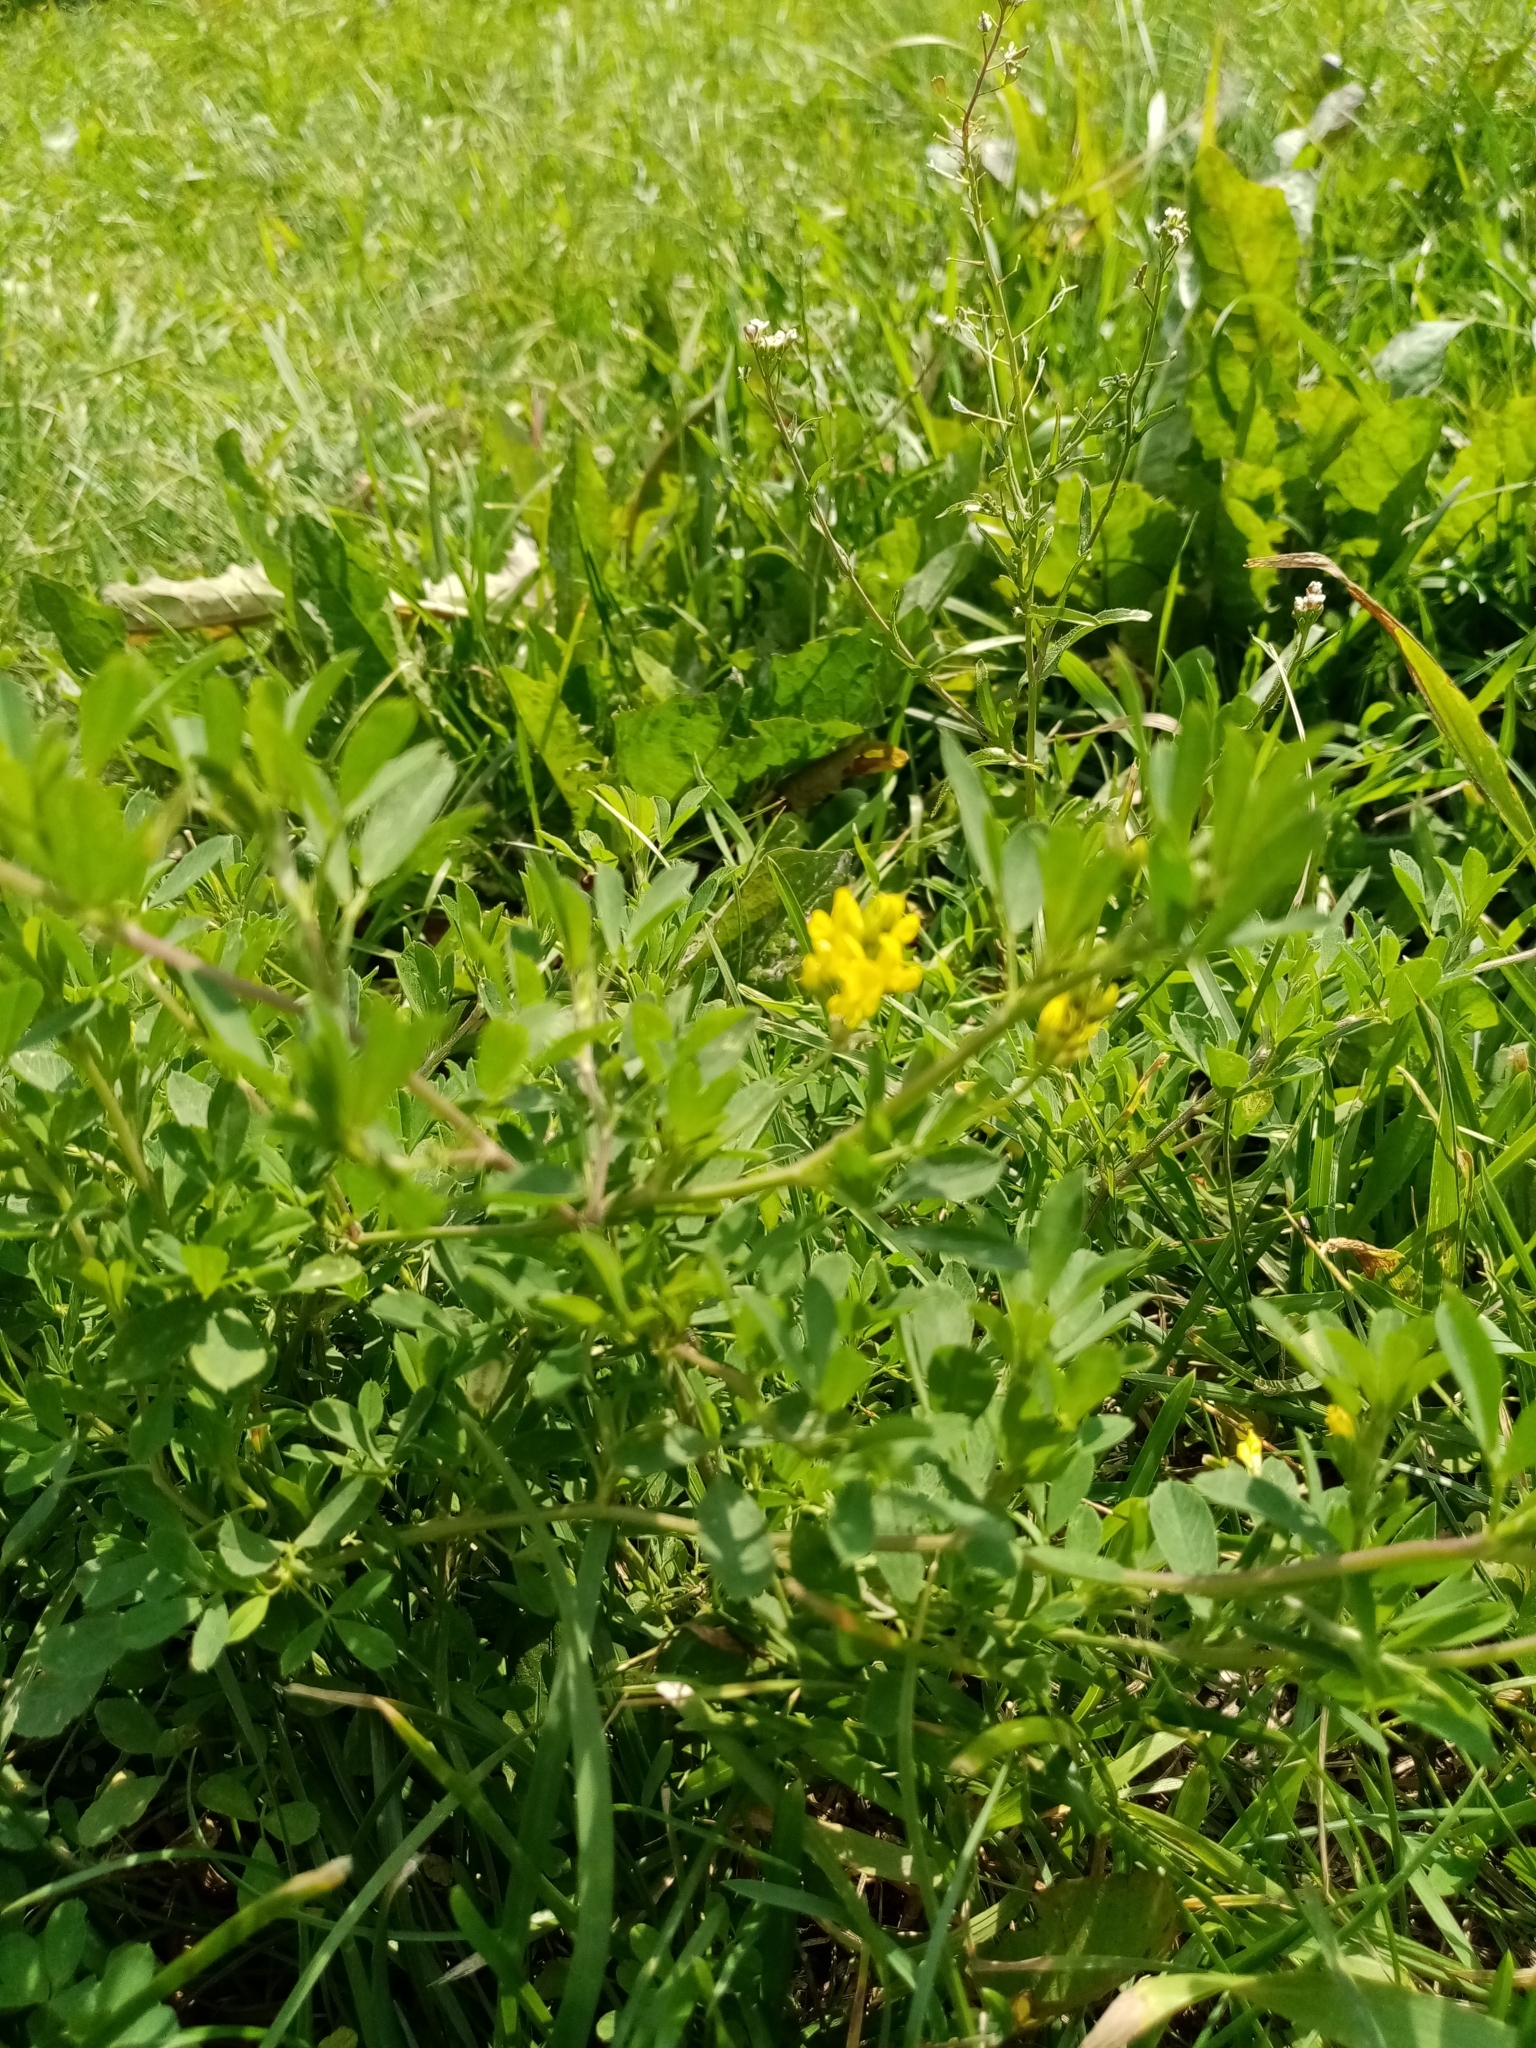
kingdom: Plantae
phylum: Tracheophyta
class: Magnoliopsida
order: Fabales
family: Fabaceae
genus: Medicago
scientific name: Medicago falcata
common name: Sickle medick
